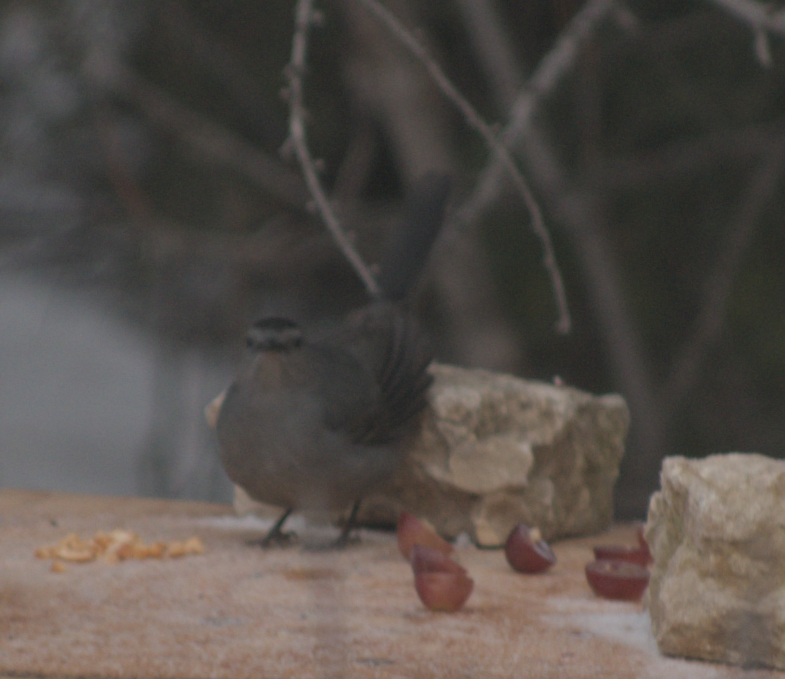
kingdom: Animalia
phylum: Chordata
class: Aves
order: Passeriformes
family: Mimidae
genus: Dumetella
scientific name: Dumetella carolinensis
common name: Gray catbird
